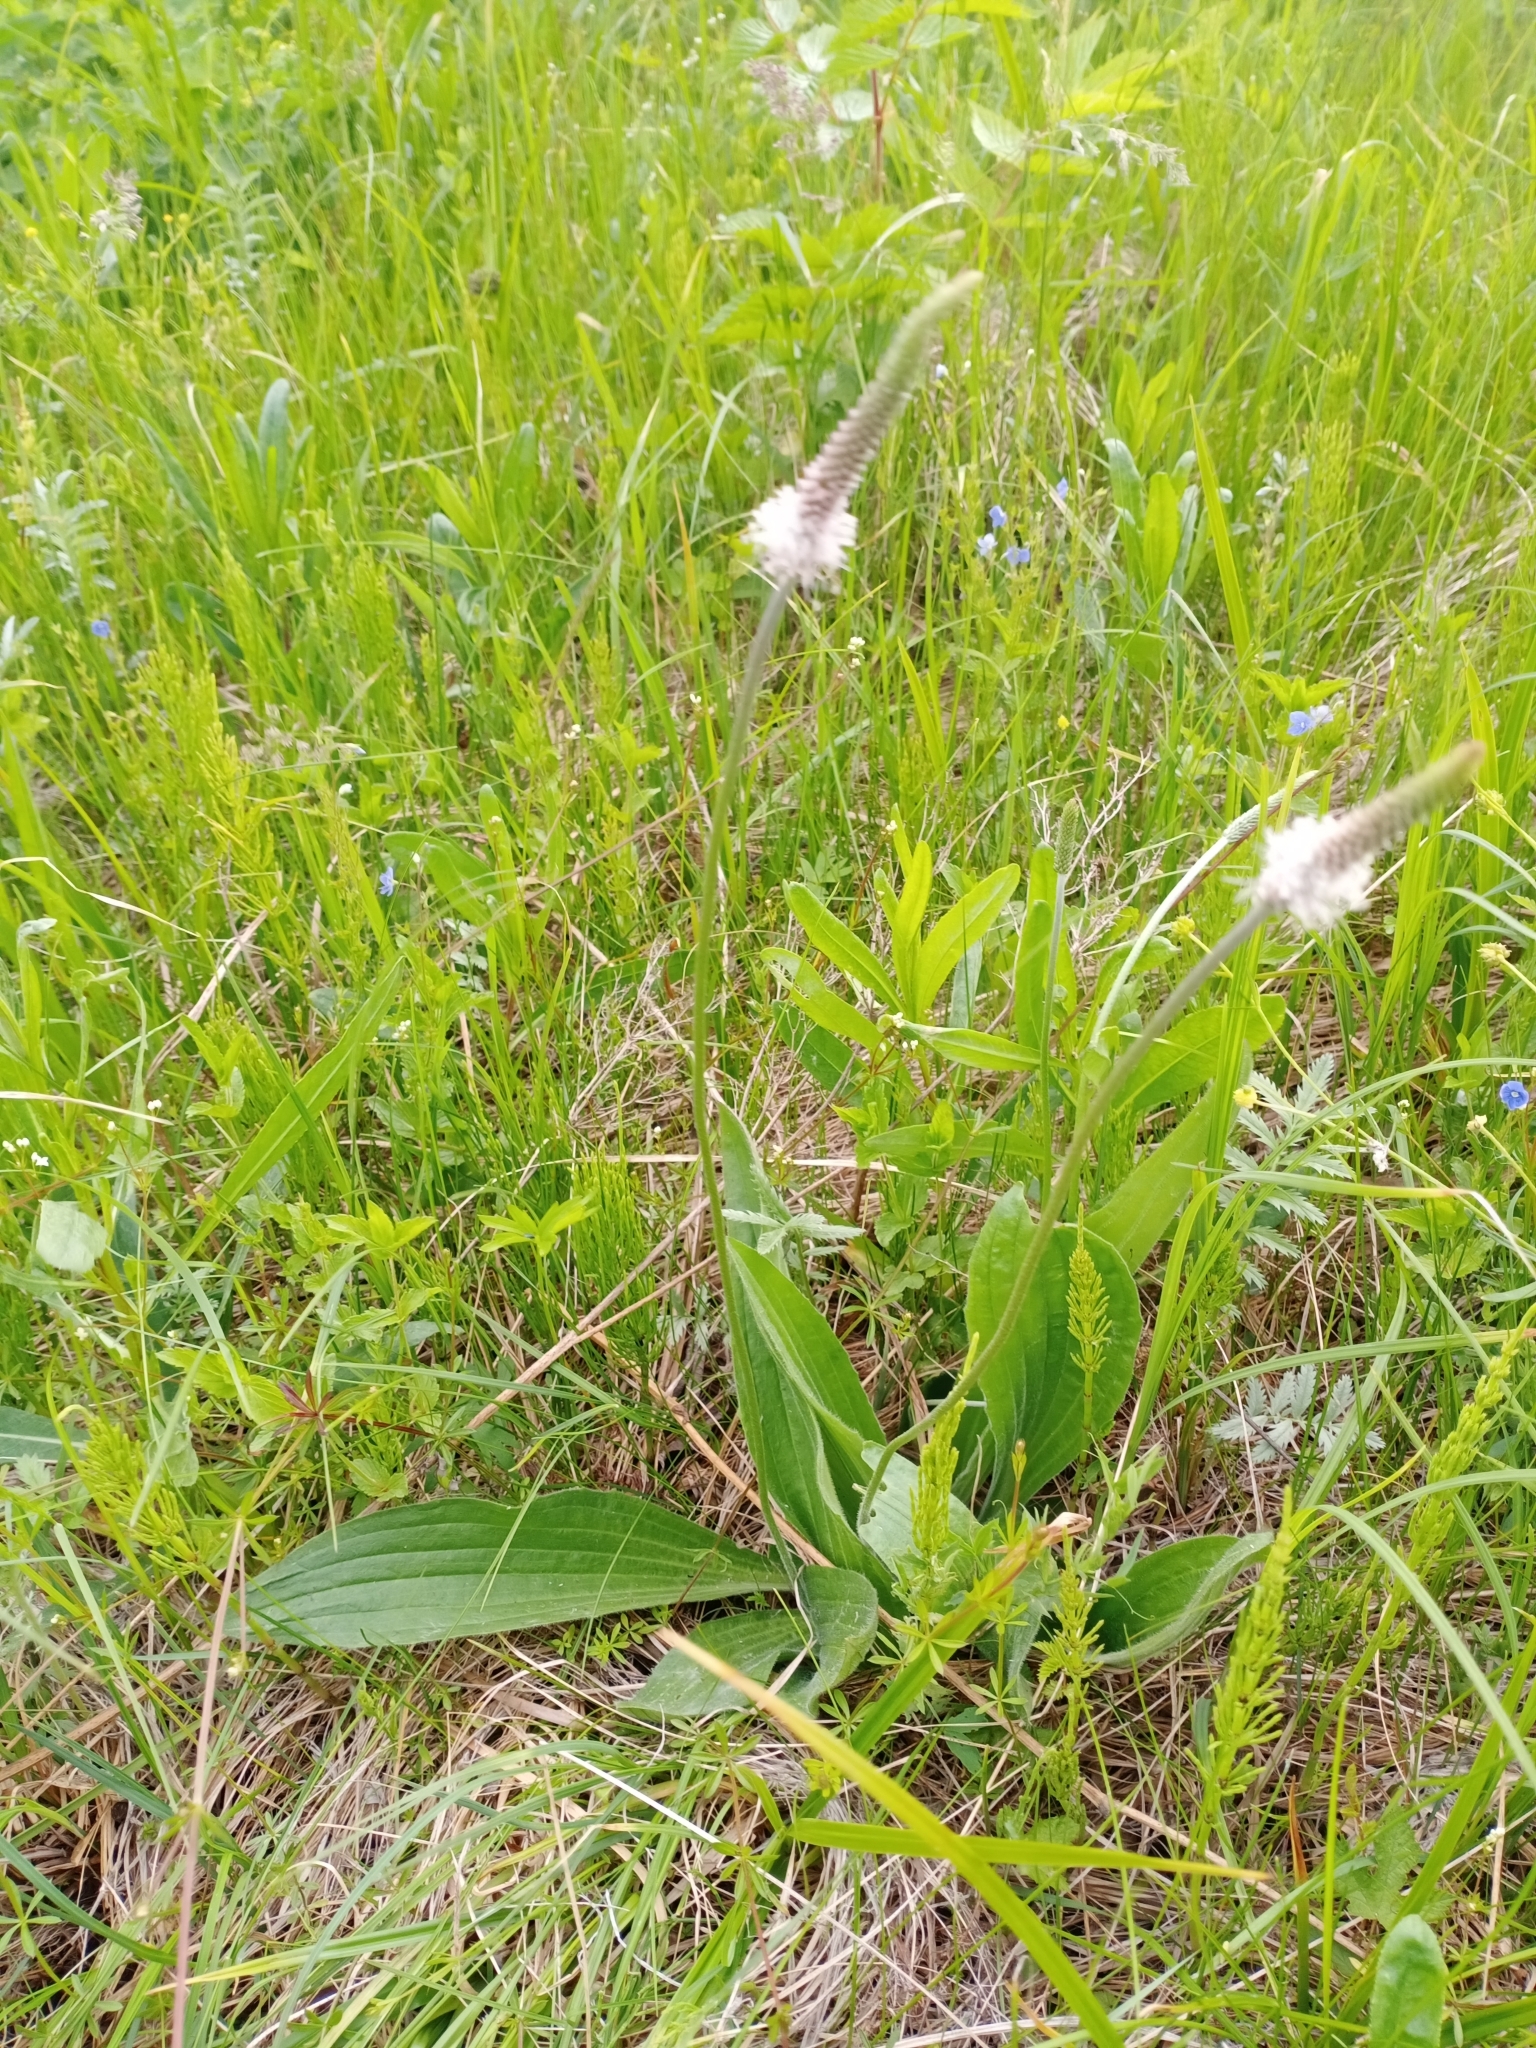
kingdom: Plantae
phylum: Tracheophyta
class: Magnoliopsida
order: Lamiales
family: Plantaginaceae
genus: Plantago
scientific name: Plantago urvillei
